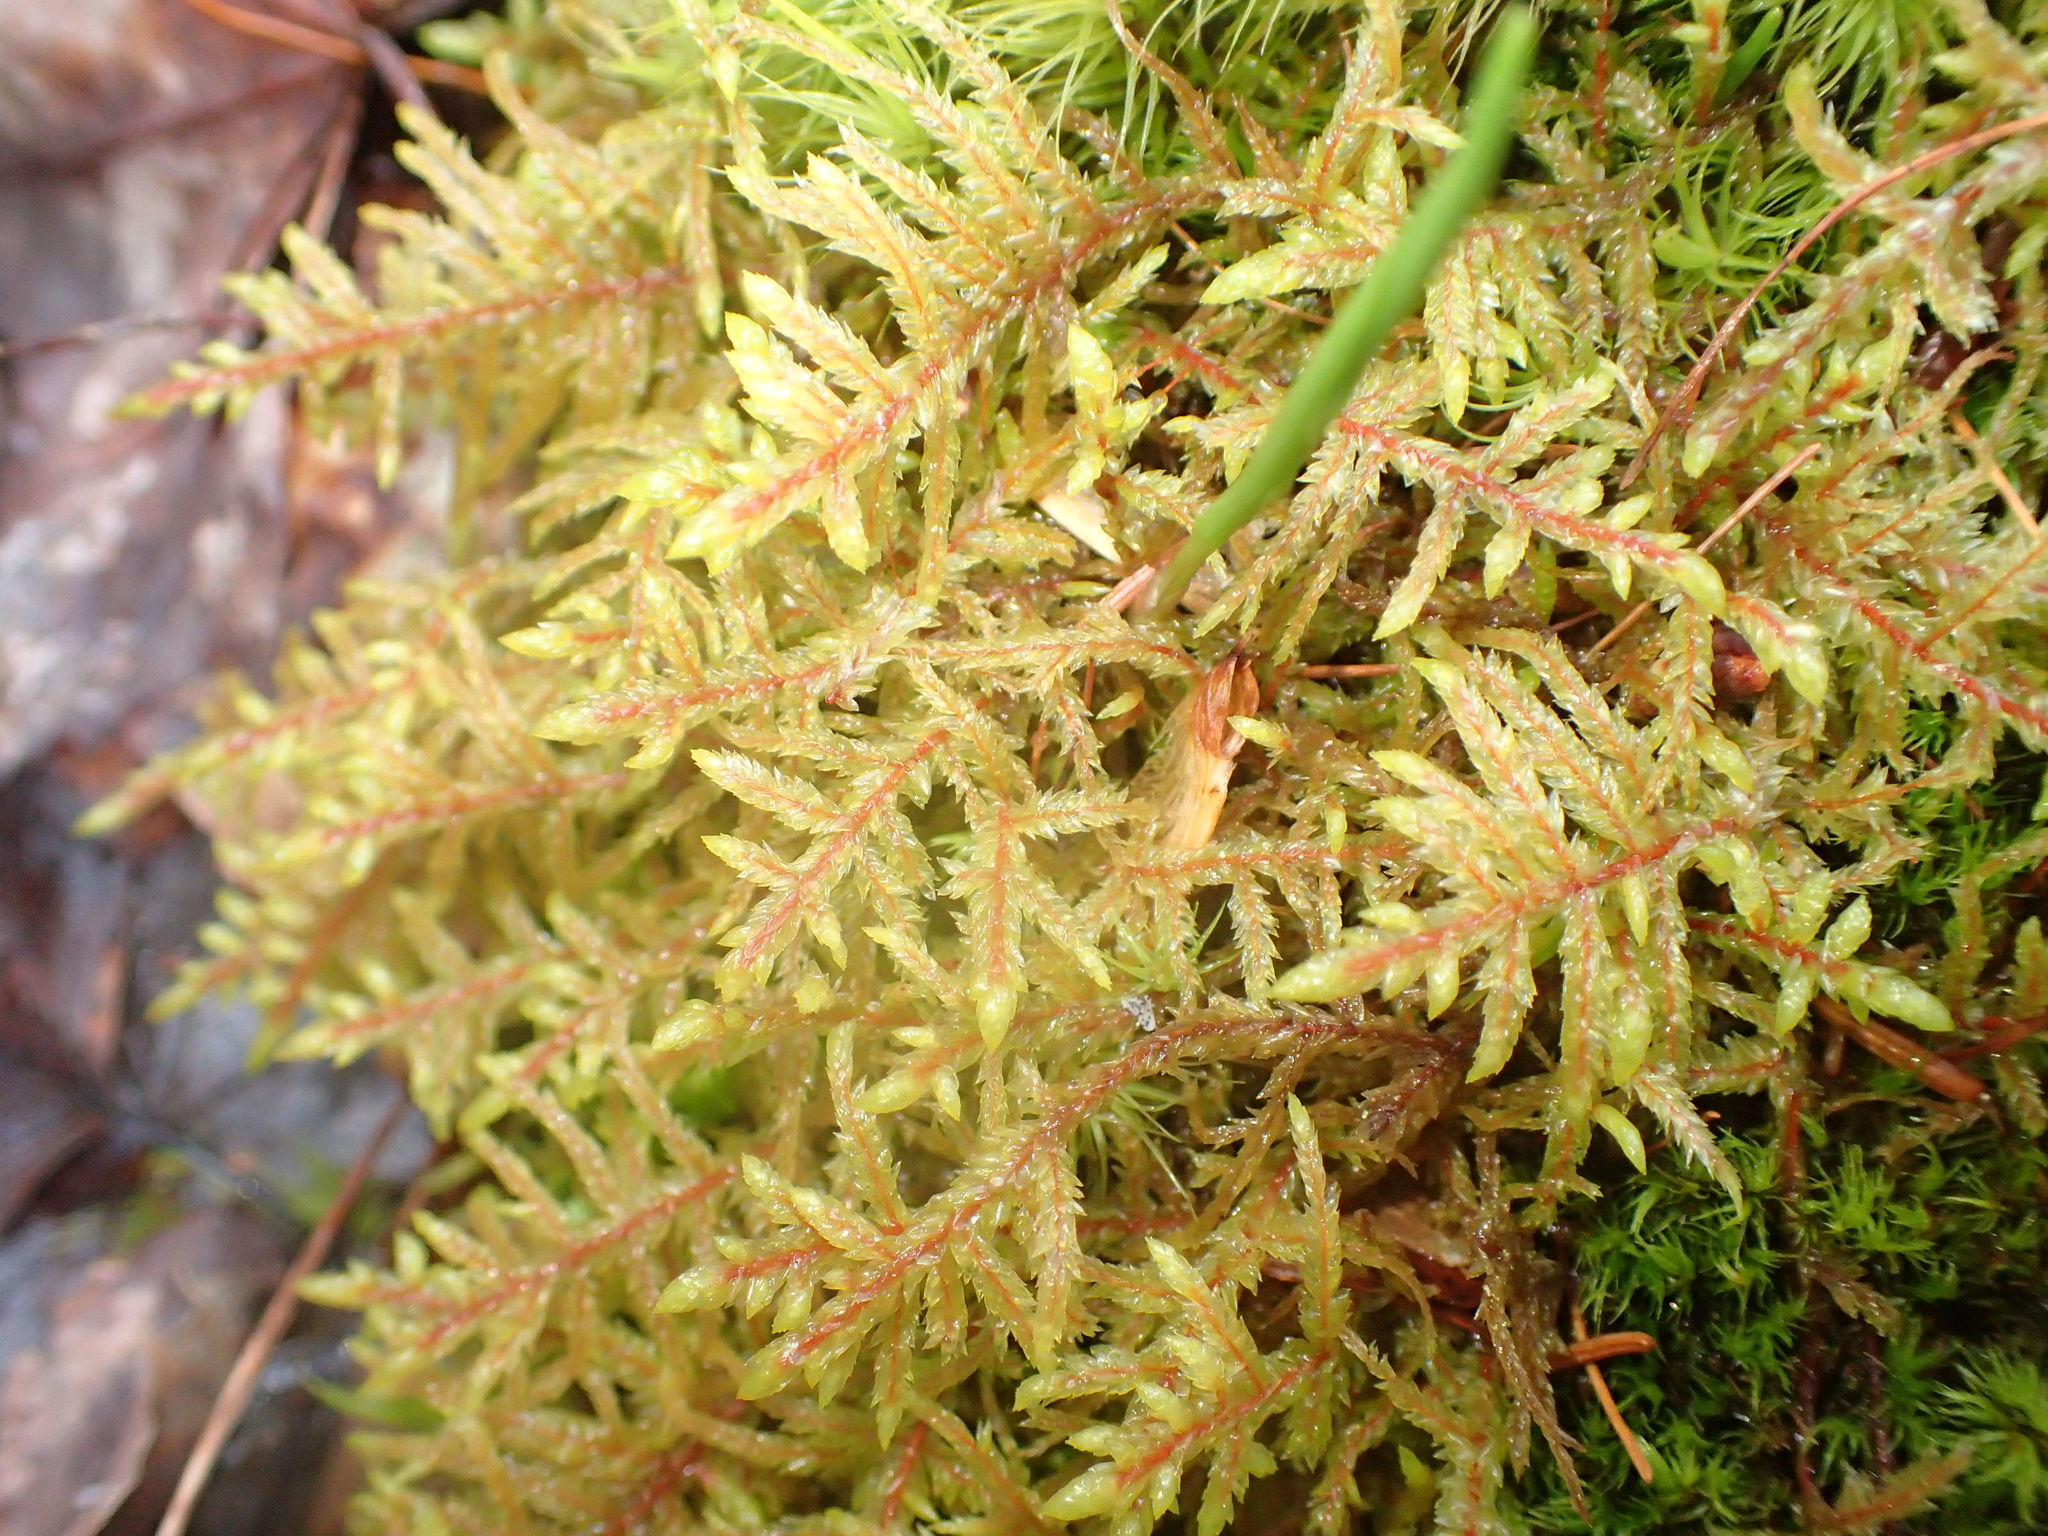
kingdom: Plantae
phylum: Bryophyta
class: Bryopsida
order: Hypnales
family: Hylocomiaceae
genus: Pleurozium
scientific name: Pleurozium schreberi
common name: Red-stemmed feather moss
